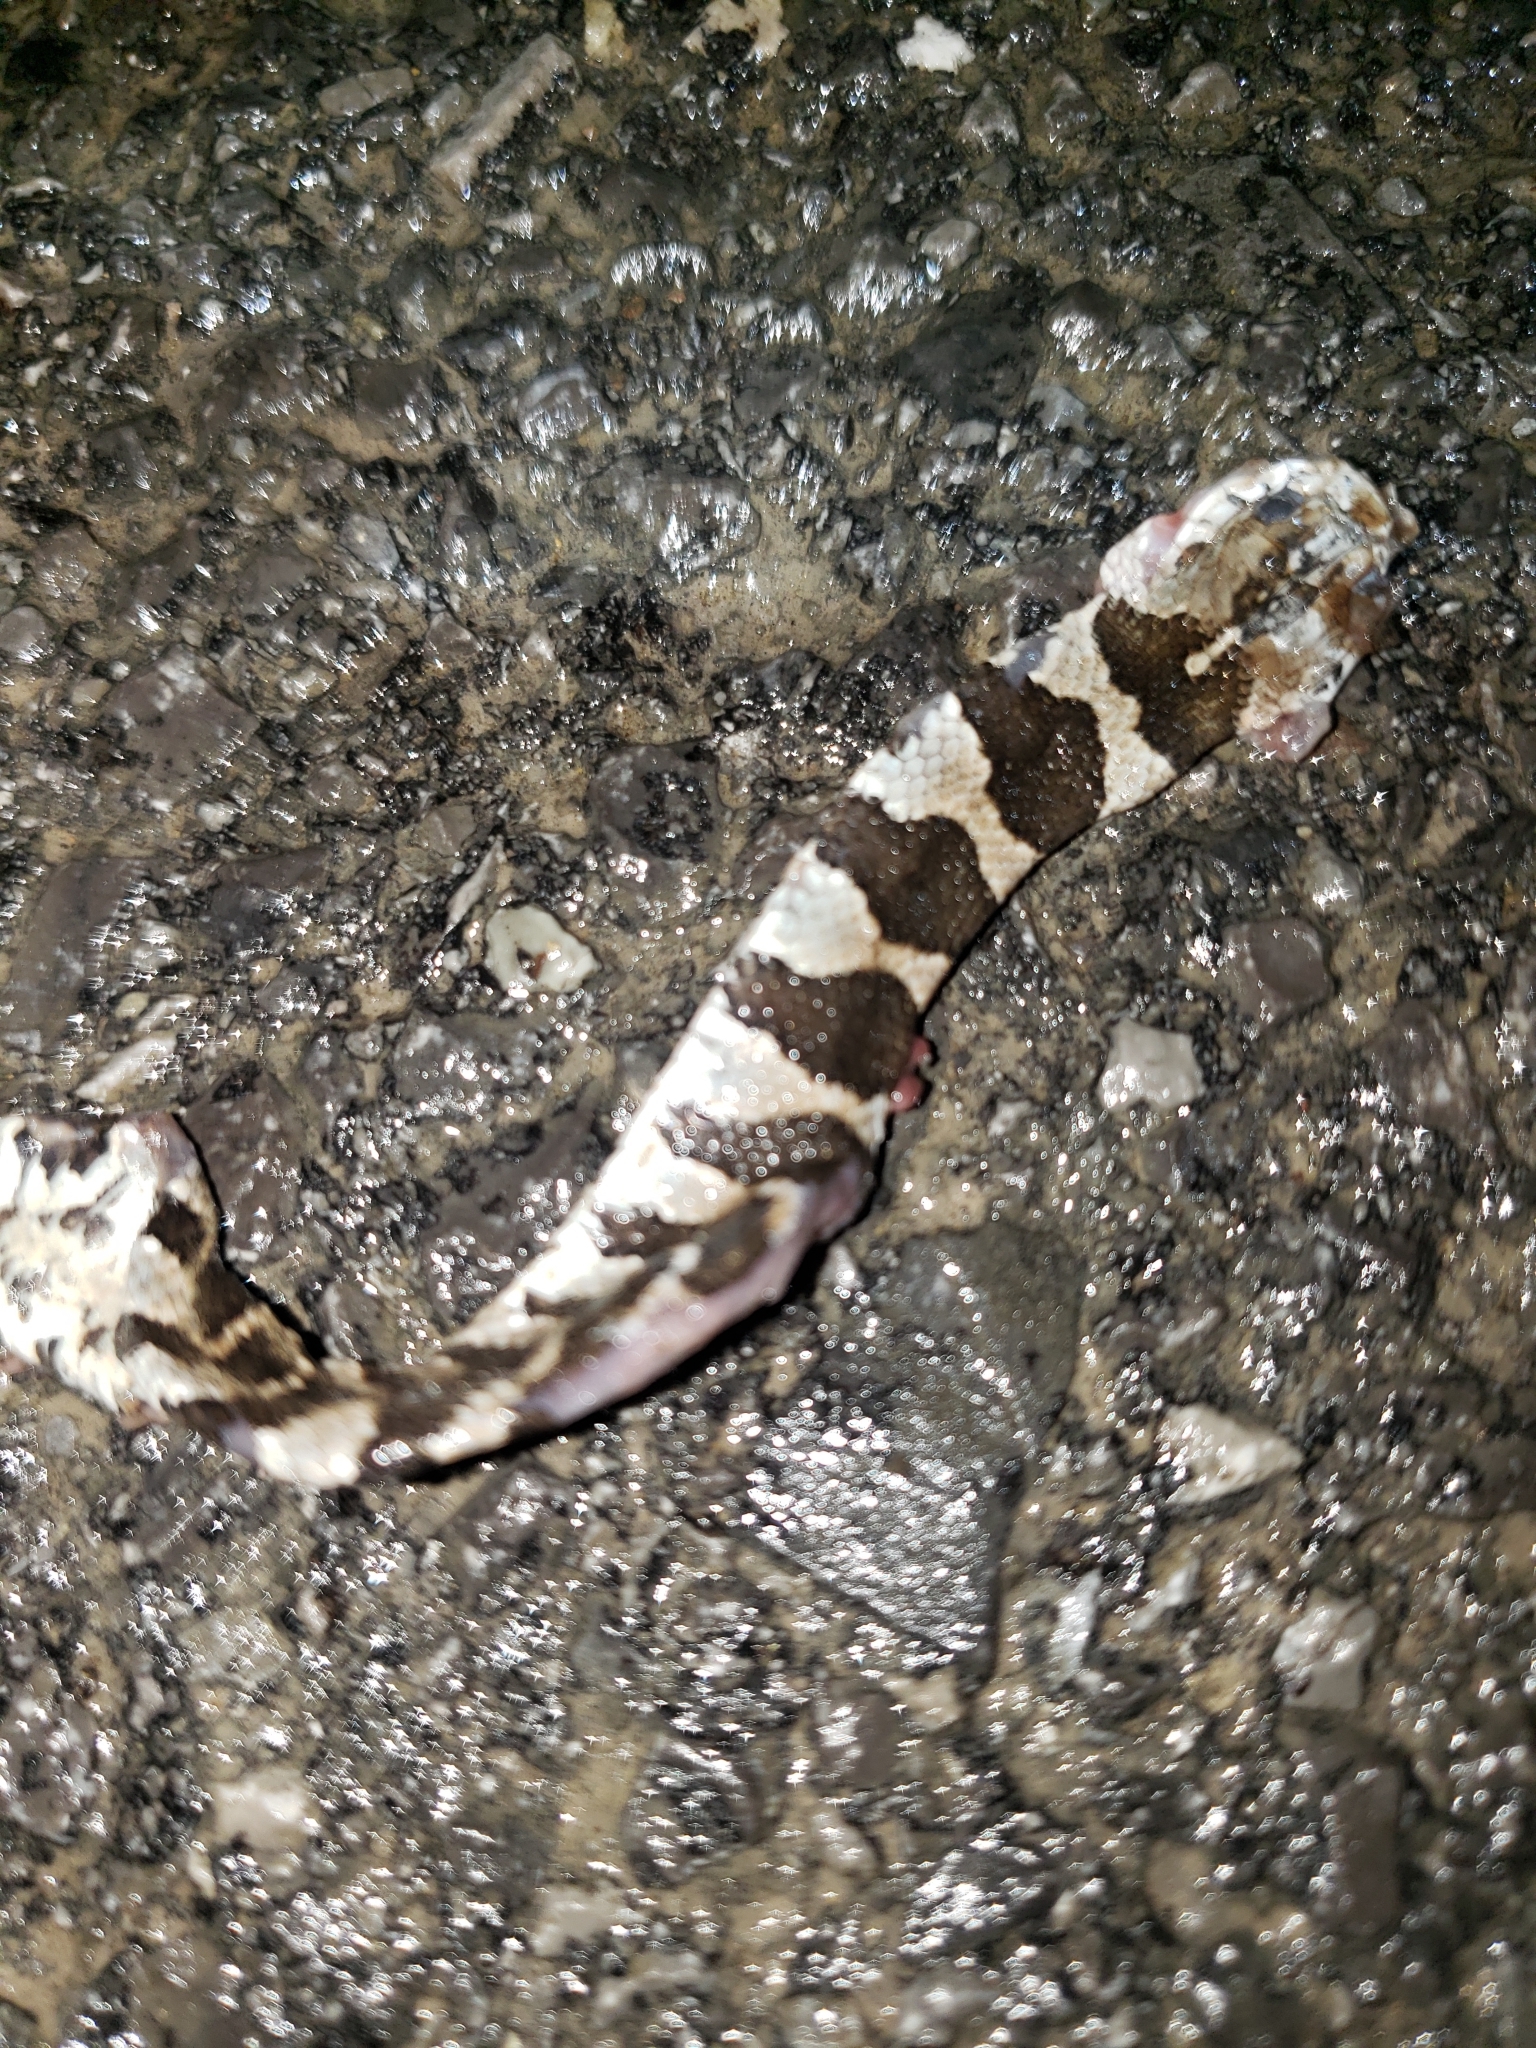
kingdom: Animalia
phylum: Chordata
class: Squamata
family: Colubridae
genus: Nerodia
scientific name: Nerodia sipedon
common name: Northern water snake
